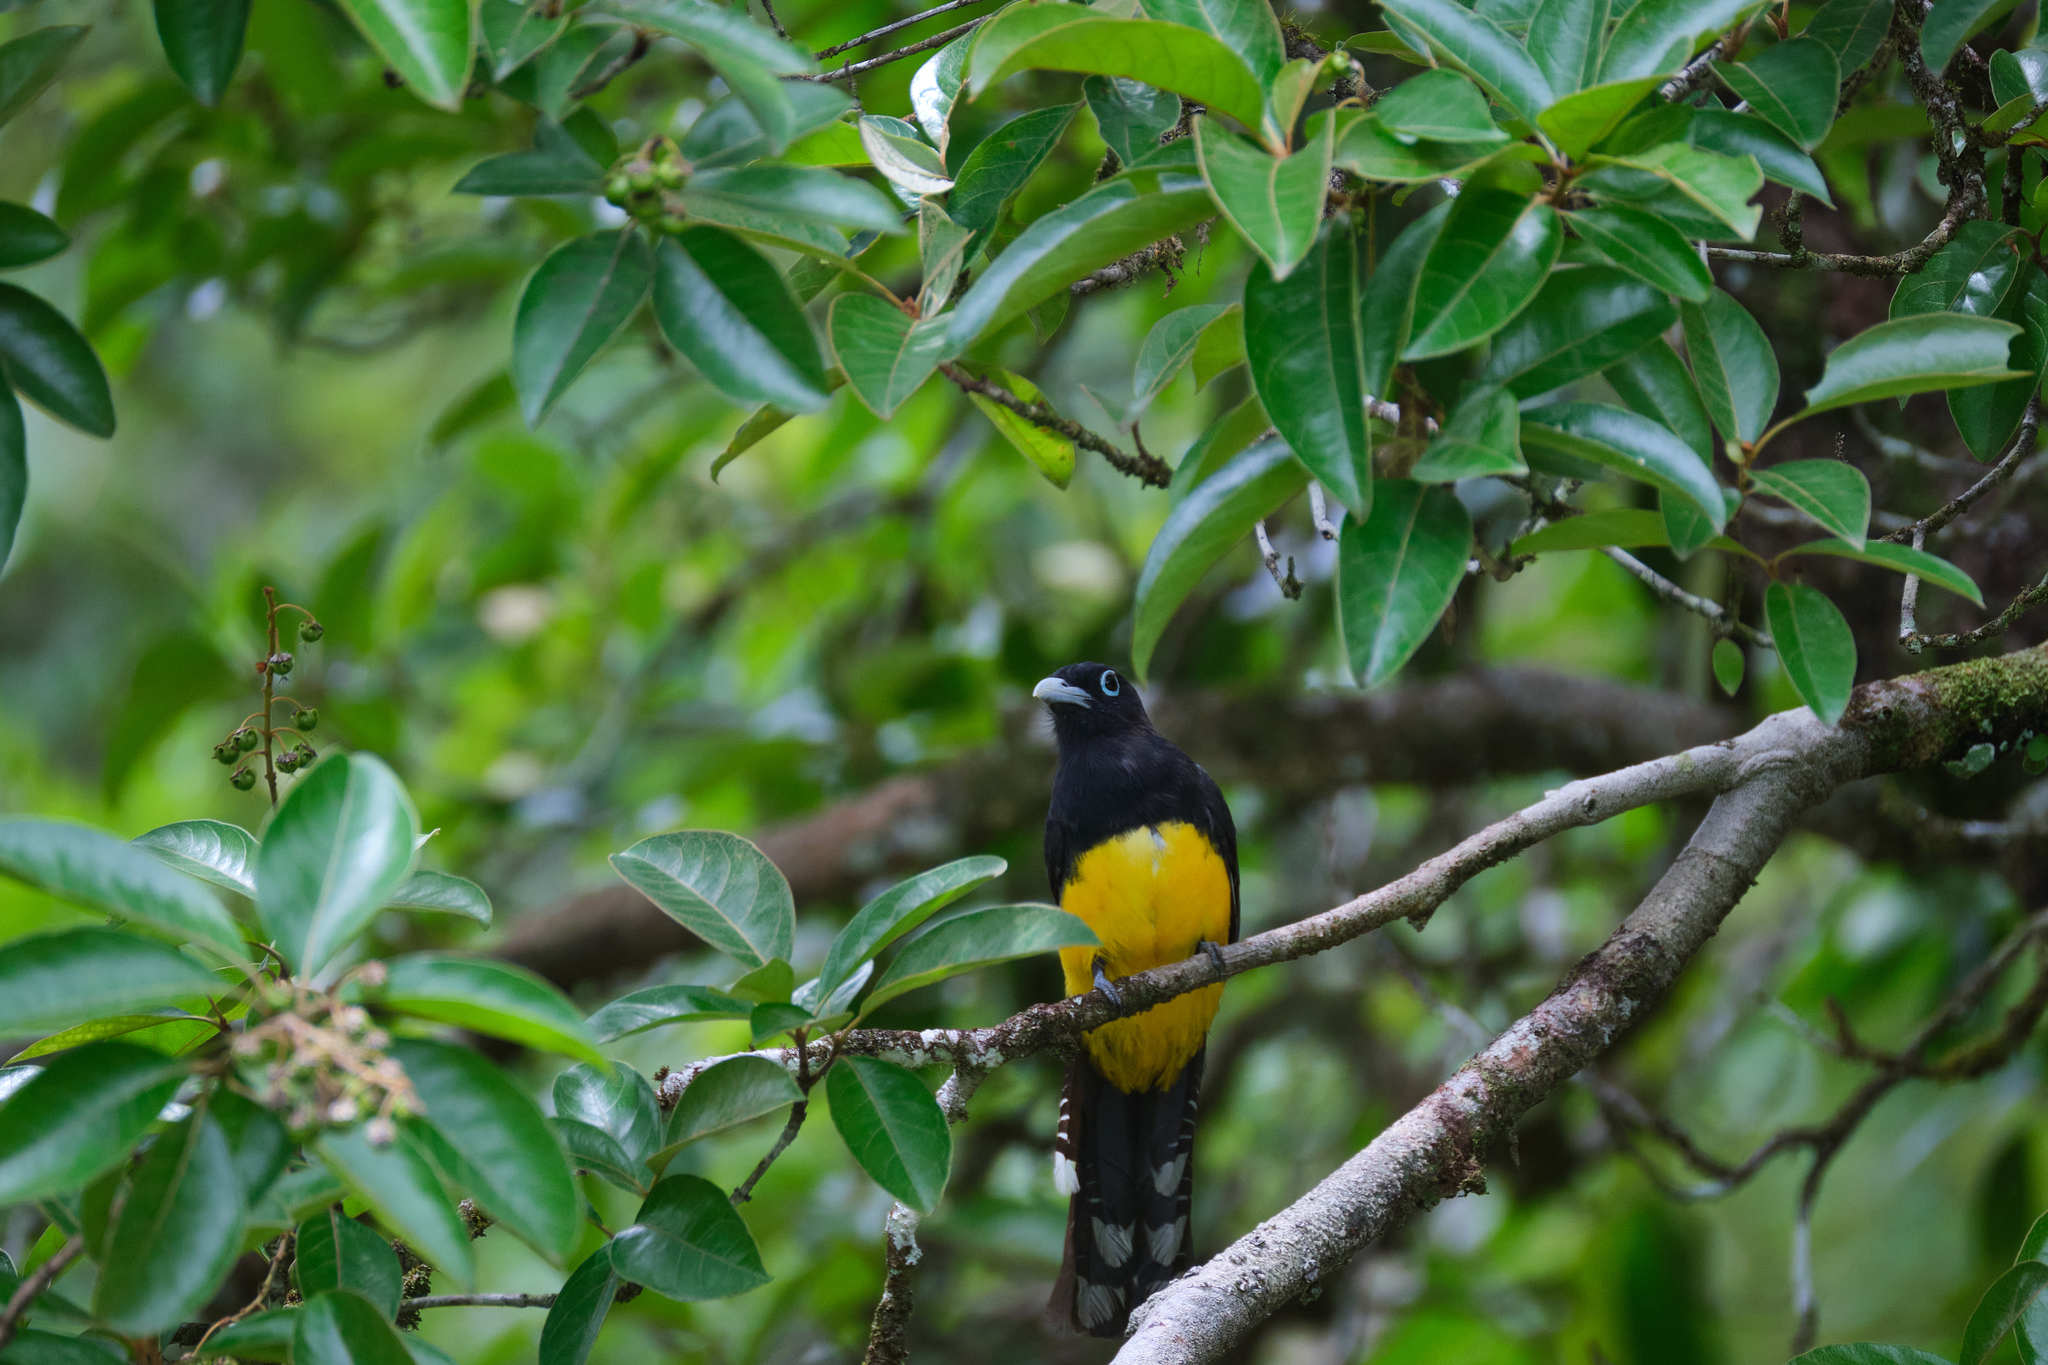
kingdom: Animalia
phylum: Chordata
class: Aves
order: Trogoniformes
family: Trogonidae
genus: Trogon
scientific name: Trogon melanocephalus
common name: Black-headed trogon
